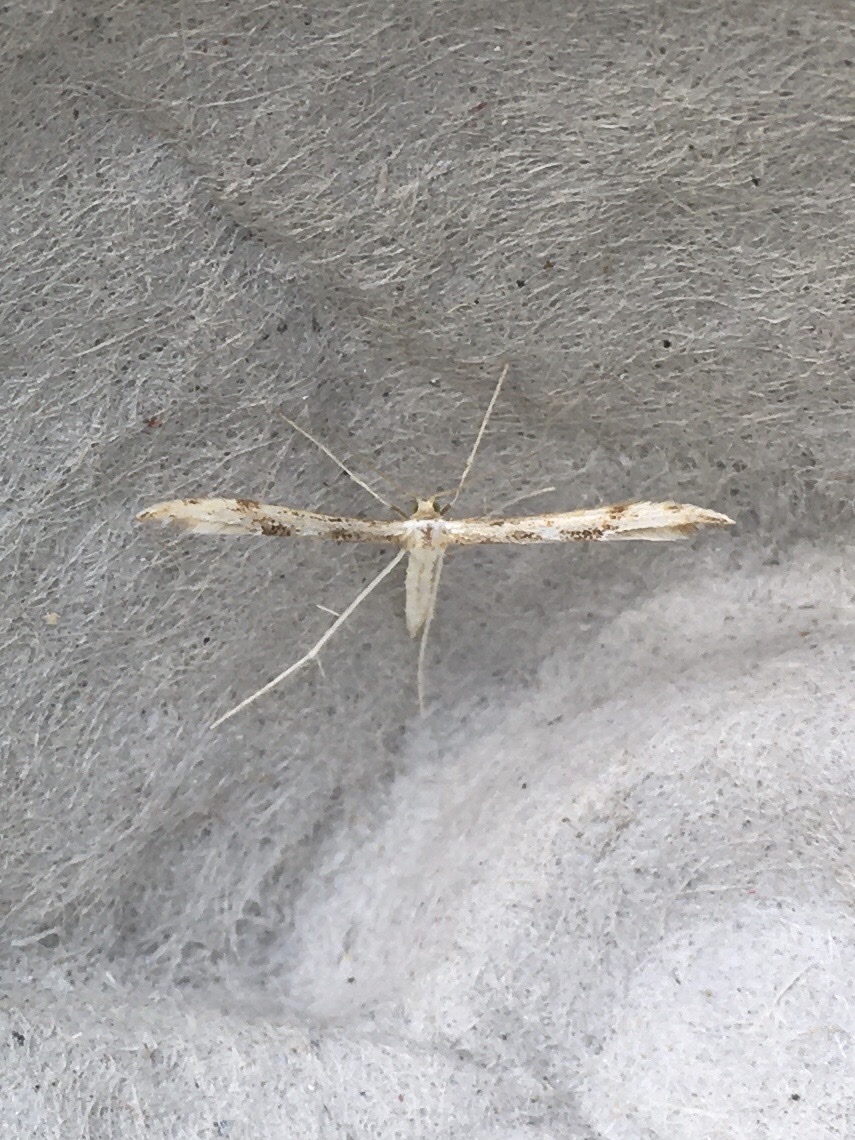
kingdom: Animalia
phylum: Arthropoda
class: Insecta
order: Lepidoptera
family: Pterophoridae
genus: Adaina
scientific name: Adaina montanus
